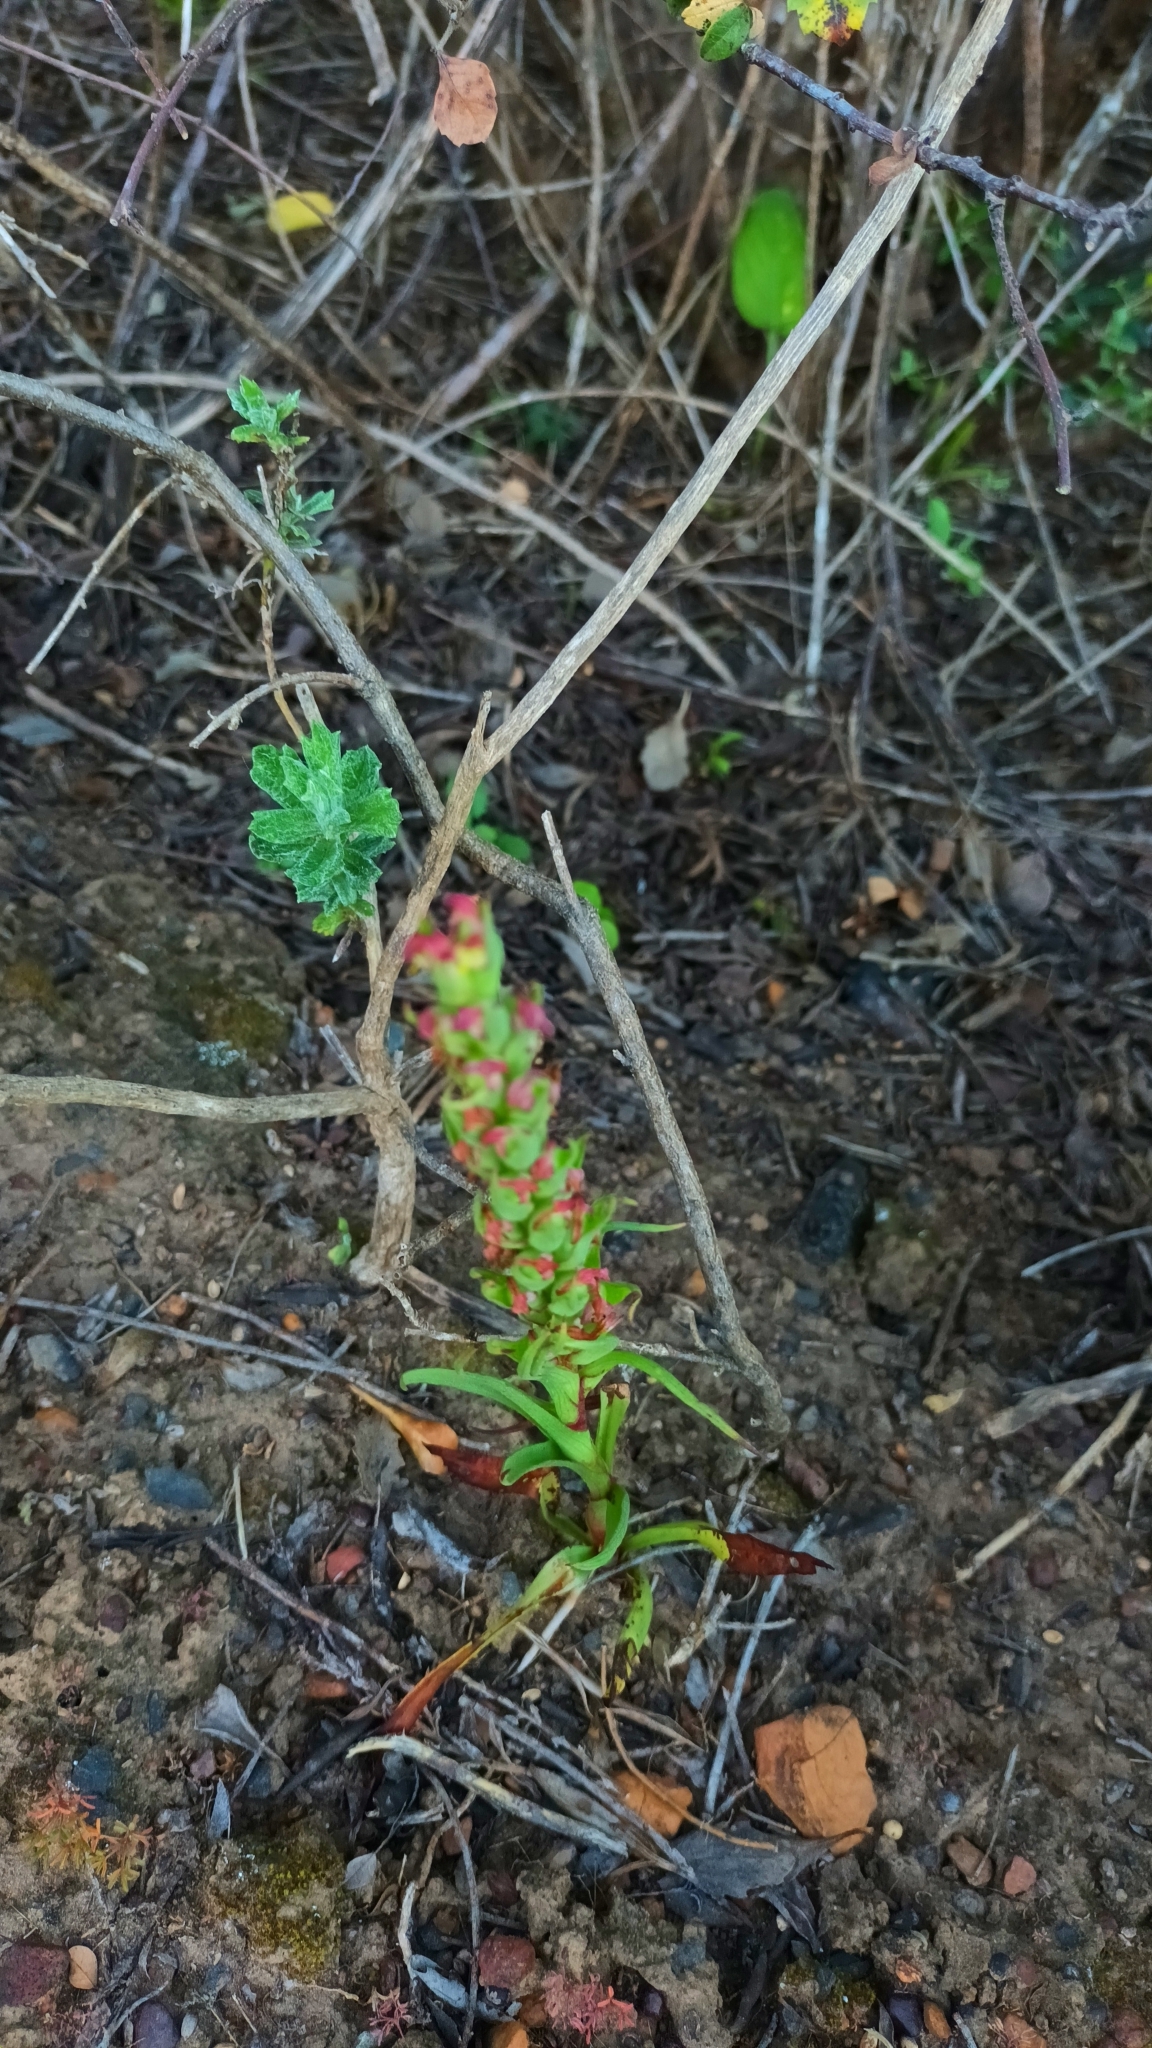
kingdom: Plantae
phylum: Tracheophyta
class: Liliopsida
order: Asparagales
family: Orchidaceae
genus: Disa
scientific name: Disa bracteata
